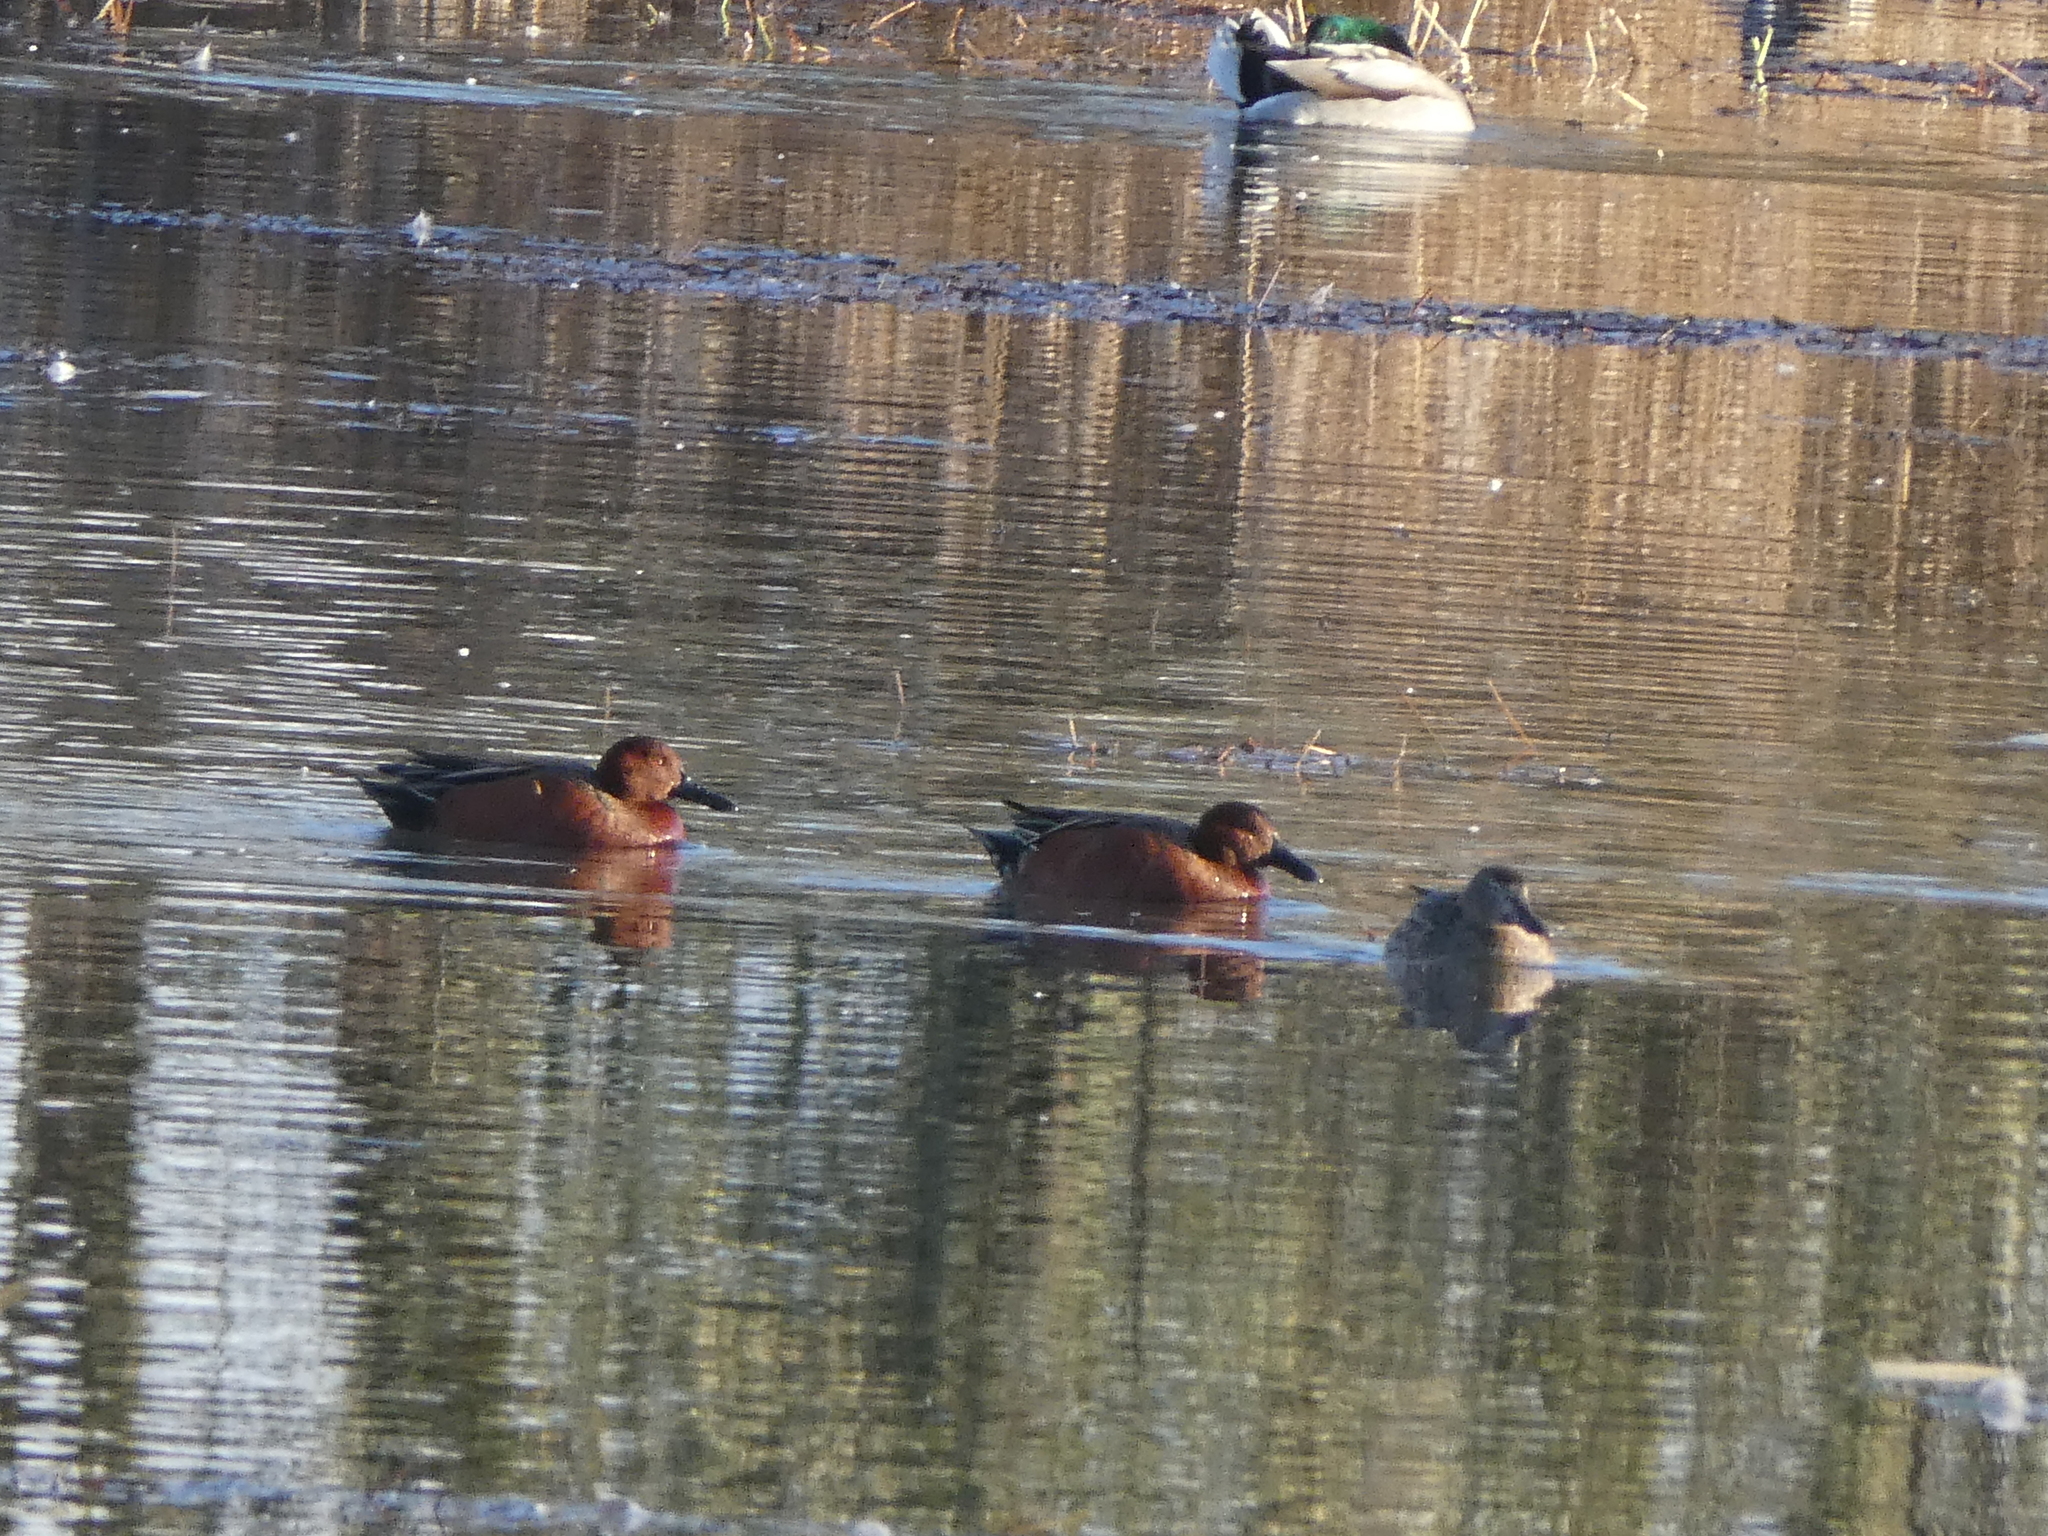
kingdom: Animalia
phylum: Chordata
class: Aves
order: Anseriformes
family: Anatidae
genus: Spatula
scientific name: Spatula cyanoptera
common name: Cinnamon teal
